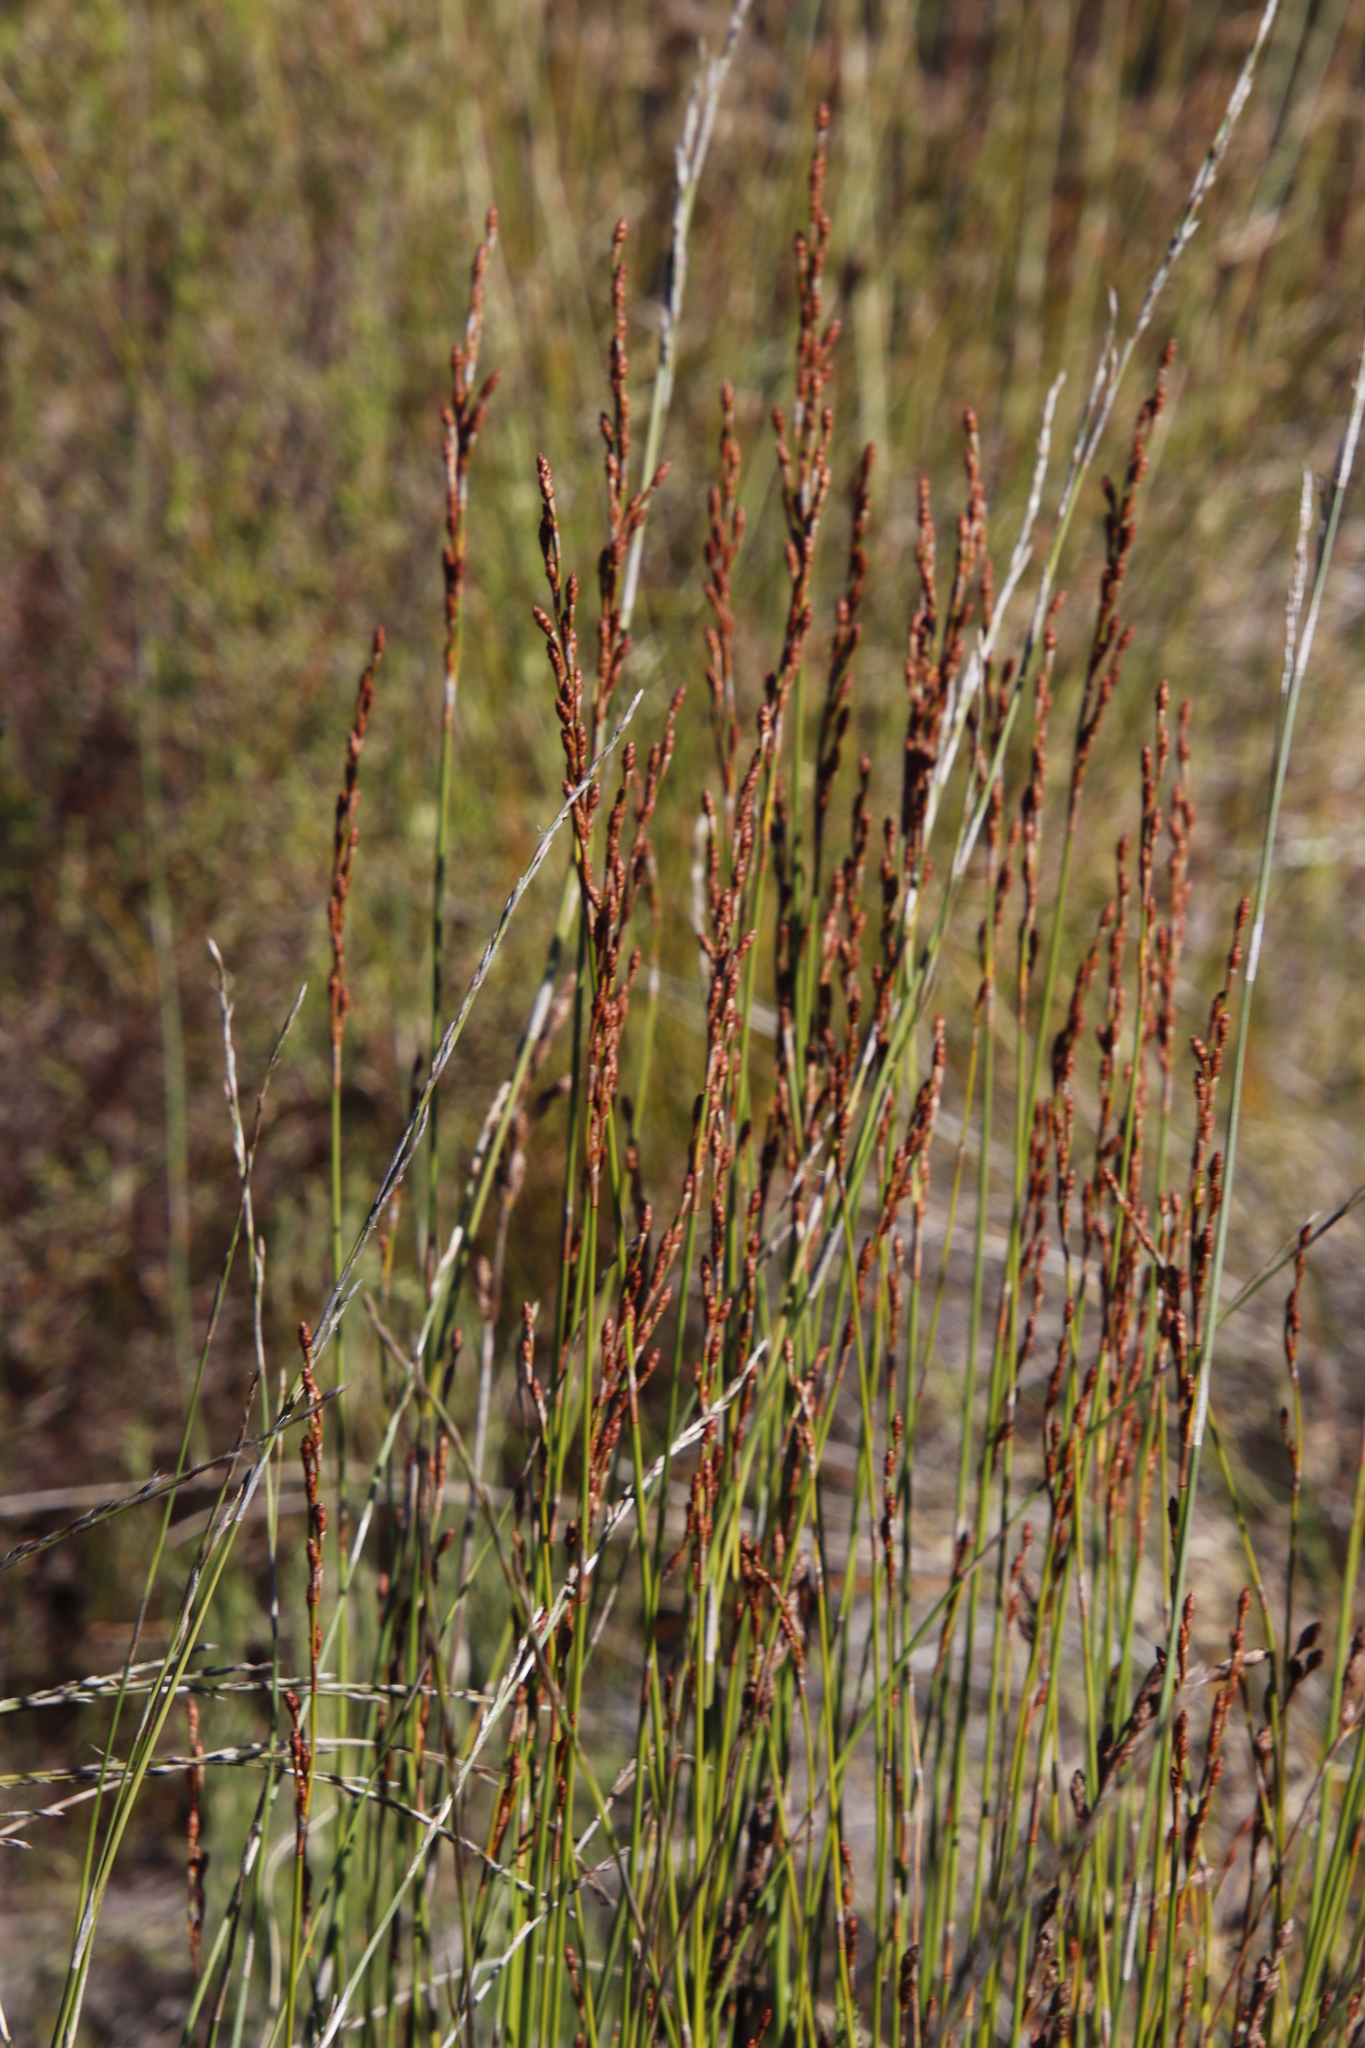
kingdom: Plantae
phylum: Tracheophyta
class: Liliopsida
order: Poales
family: Restionaceae
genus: Restio
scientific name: Restio bifurcus
